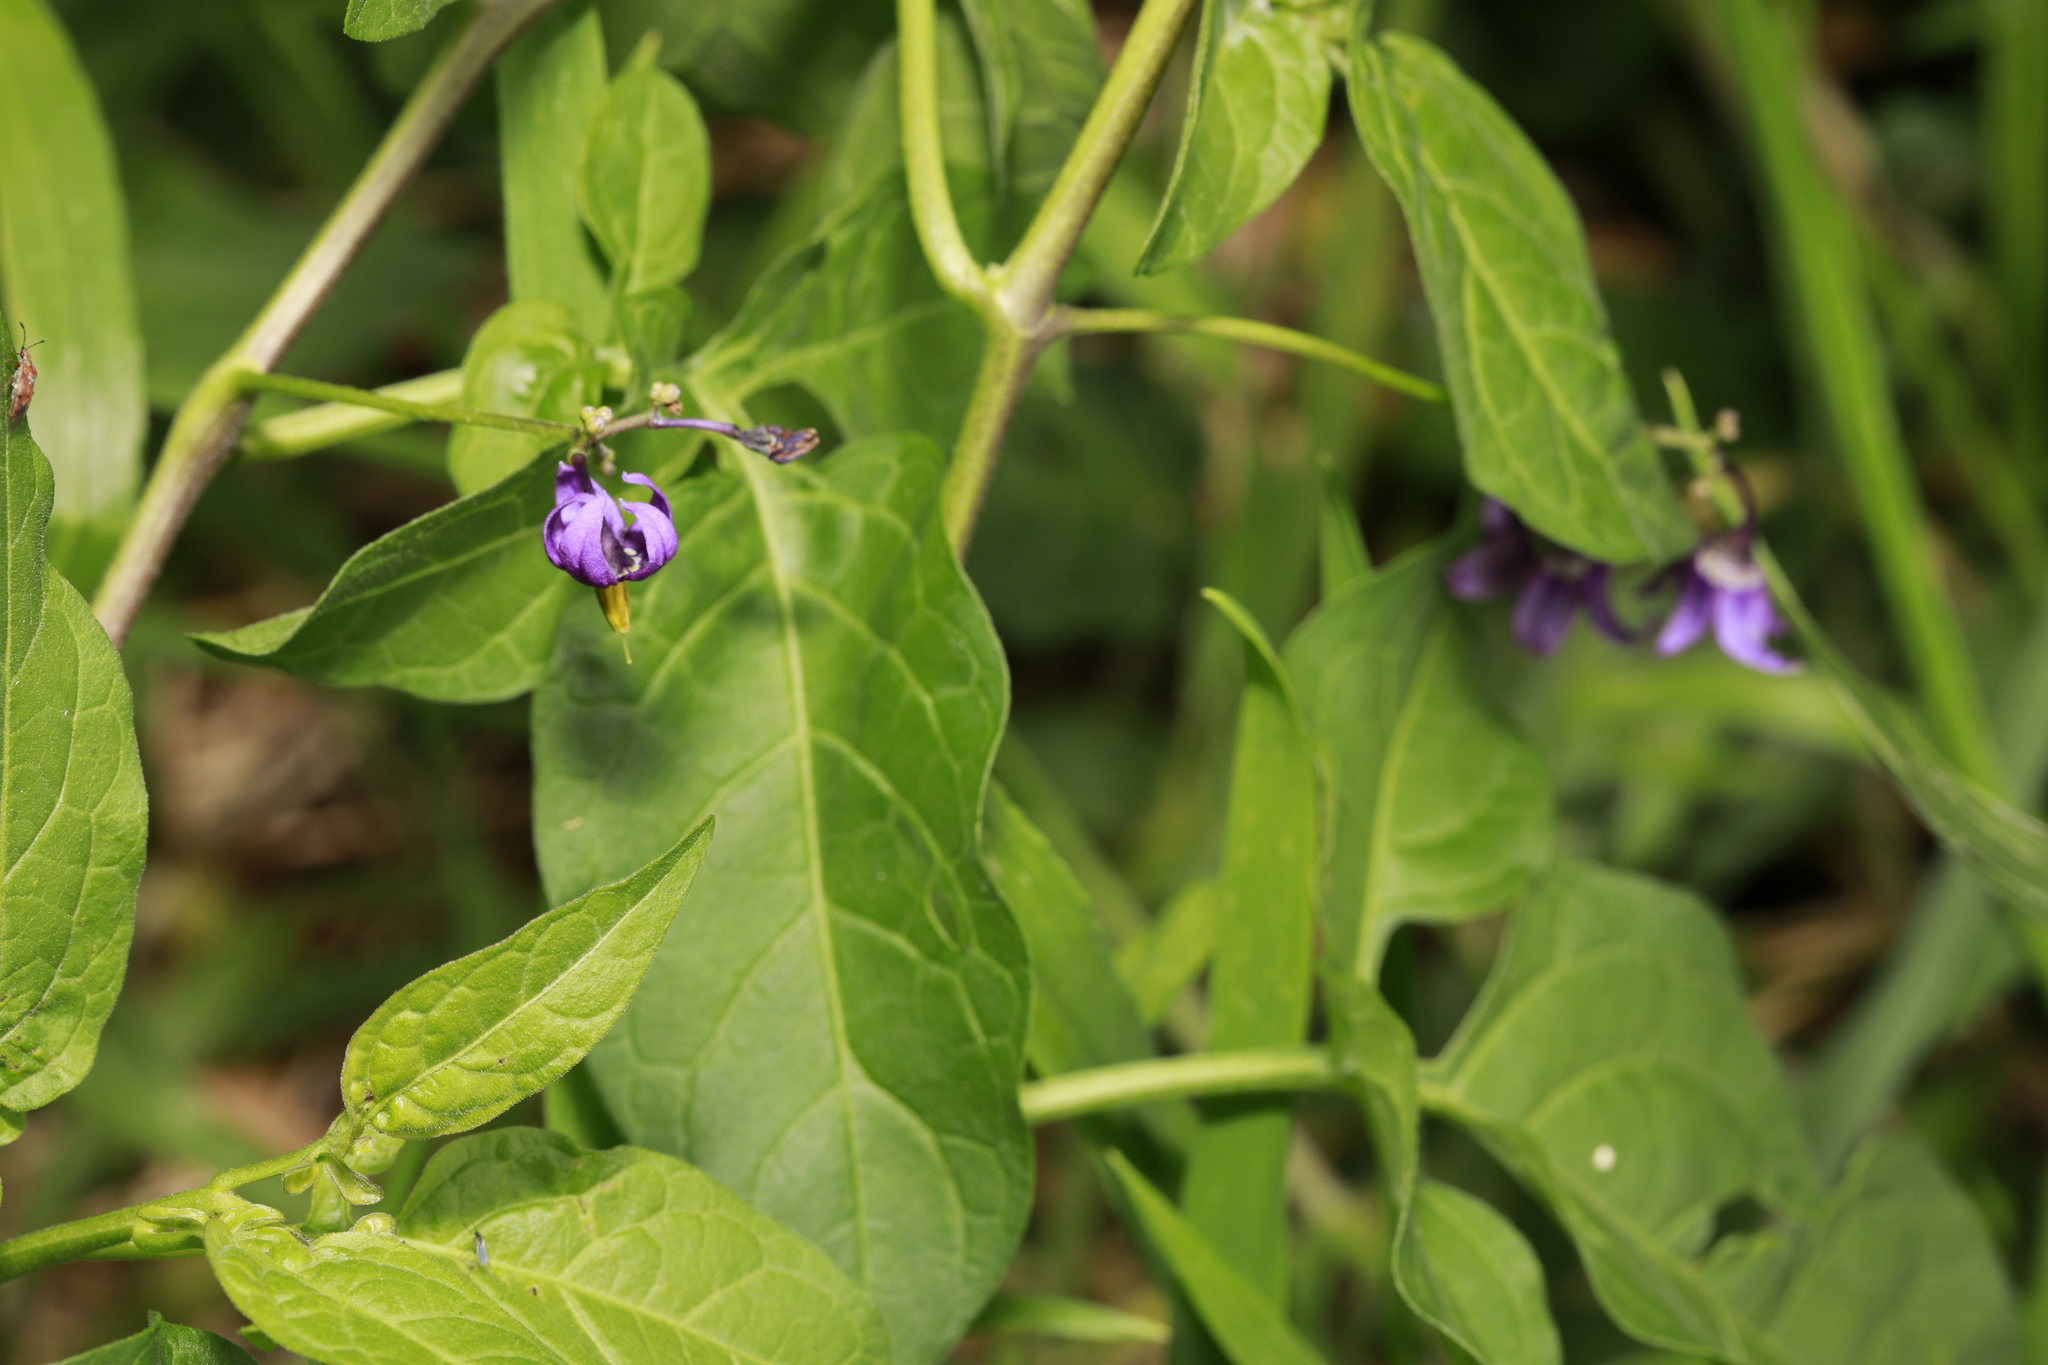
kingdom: Plantae
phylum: Tracheophyta
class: Magnoliopsida
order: Solanales
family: Solanaceae
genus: Solanum
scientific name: Solanum dulcamara
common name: Climbing nightshade
